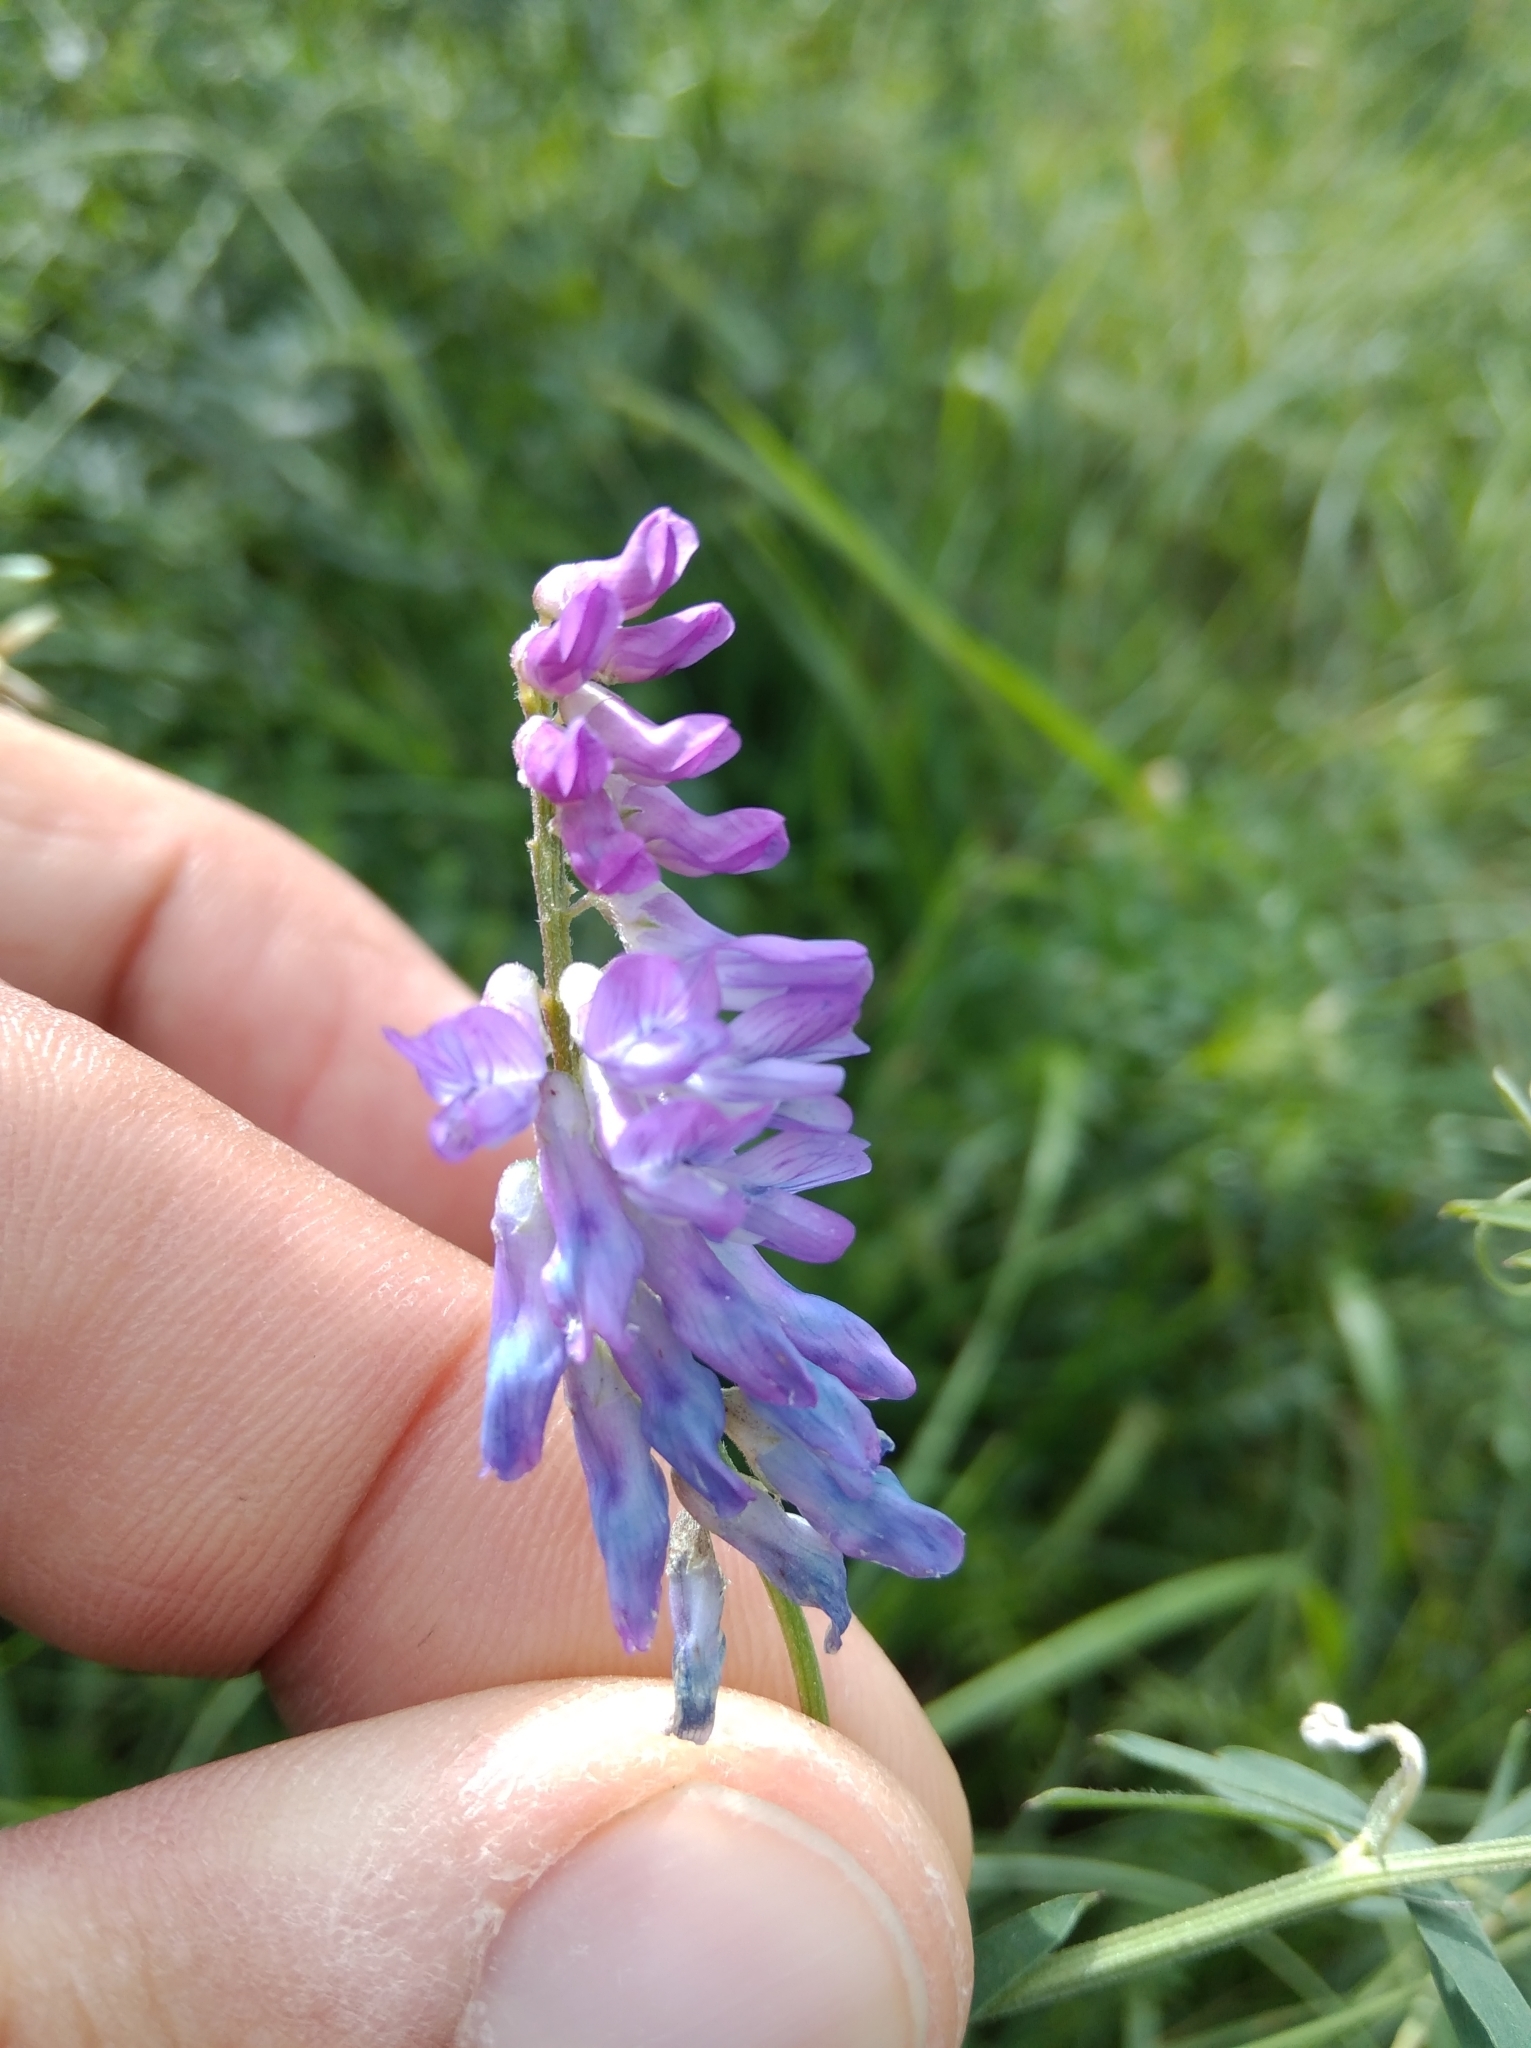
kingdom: Plantae
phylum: Tracheophyta
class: Magnoliopsida
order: Fabales
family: Fabaceae
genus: Vicia
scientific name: Vicia cracca
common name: Bird vetch
